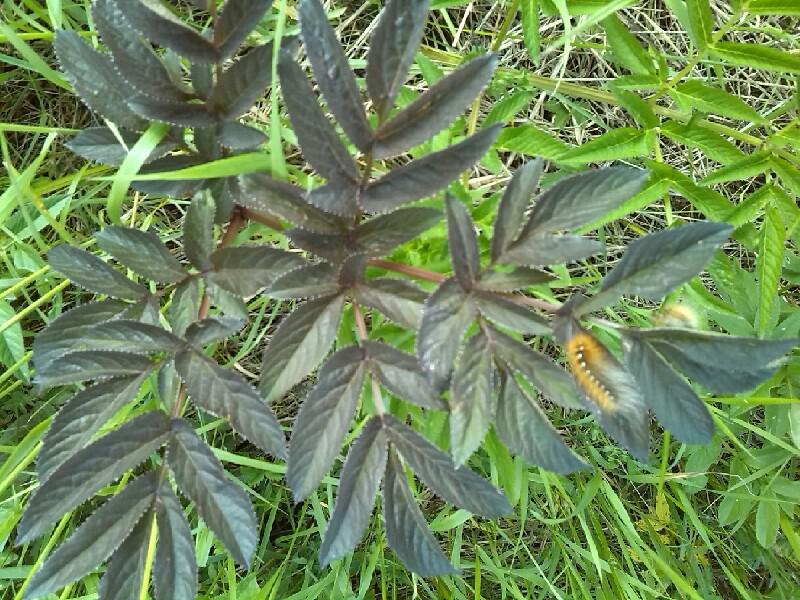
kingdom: Animalia
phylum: Arthropoda
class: Insecta
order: Lepidoptera
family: Erebidae
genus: Arctia
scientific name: Arctia caja
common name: Garden tiger
